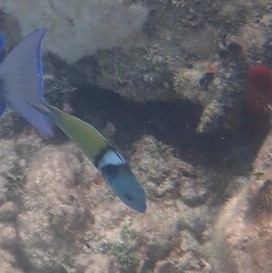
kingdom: Animalia
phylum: Chordata
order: Perciformes
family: Labridae
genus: Thalassoma
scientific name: Thalassoma bifasciatum
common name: Bluehead wrasse
